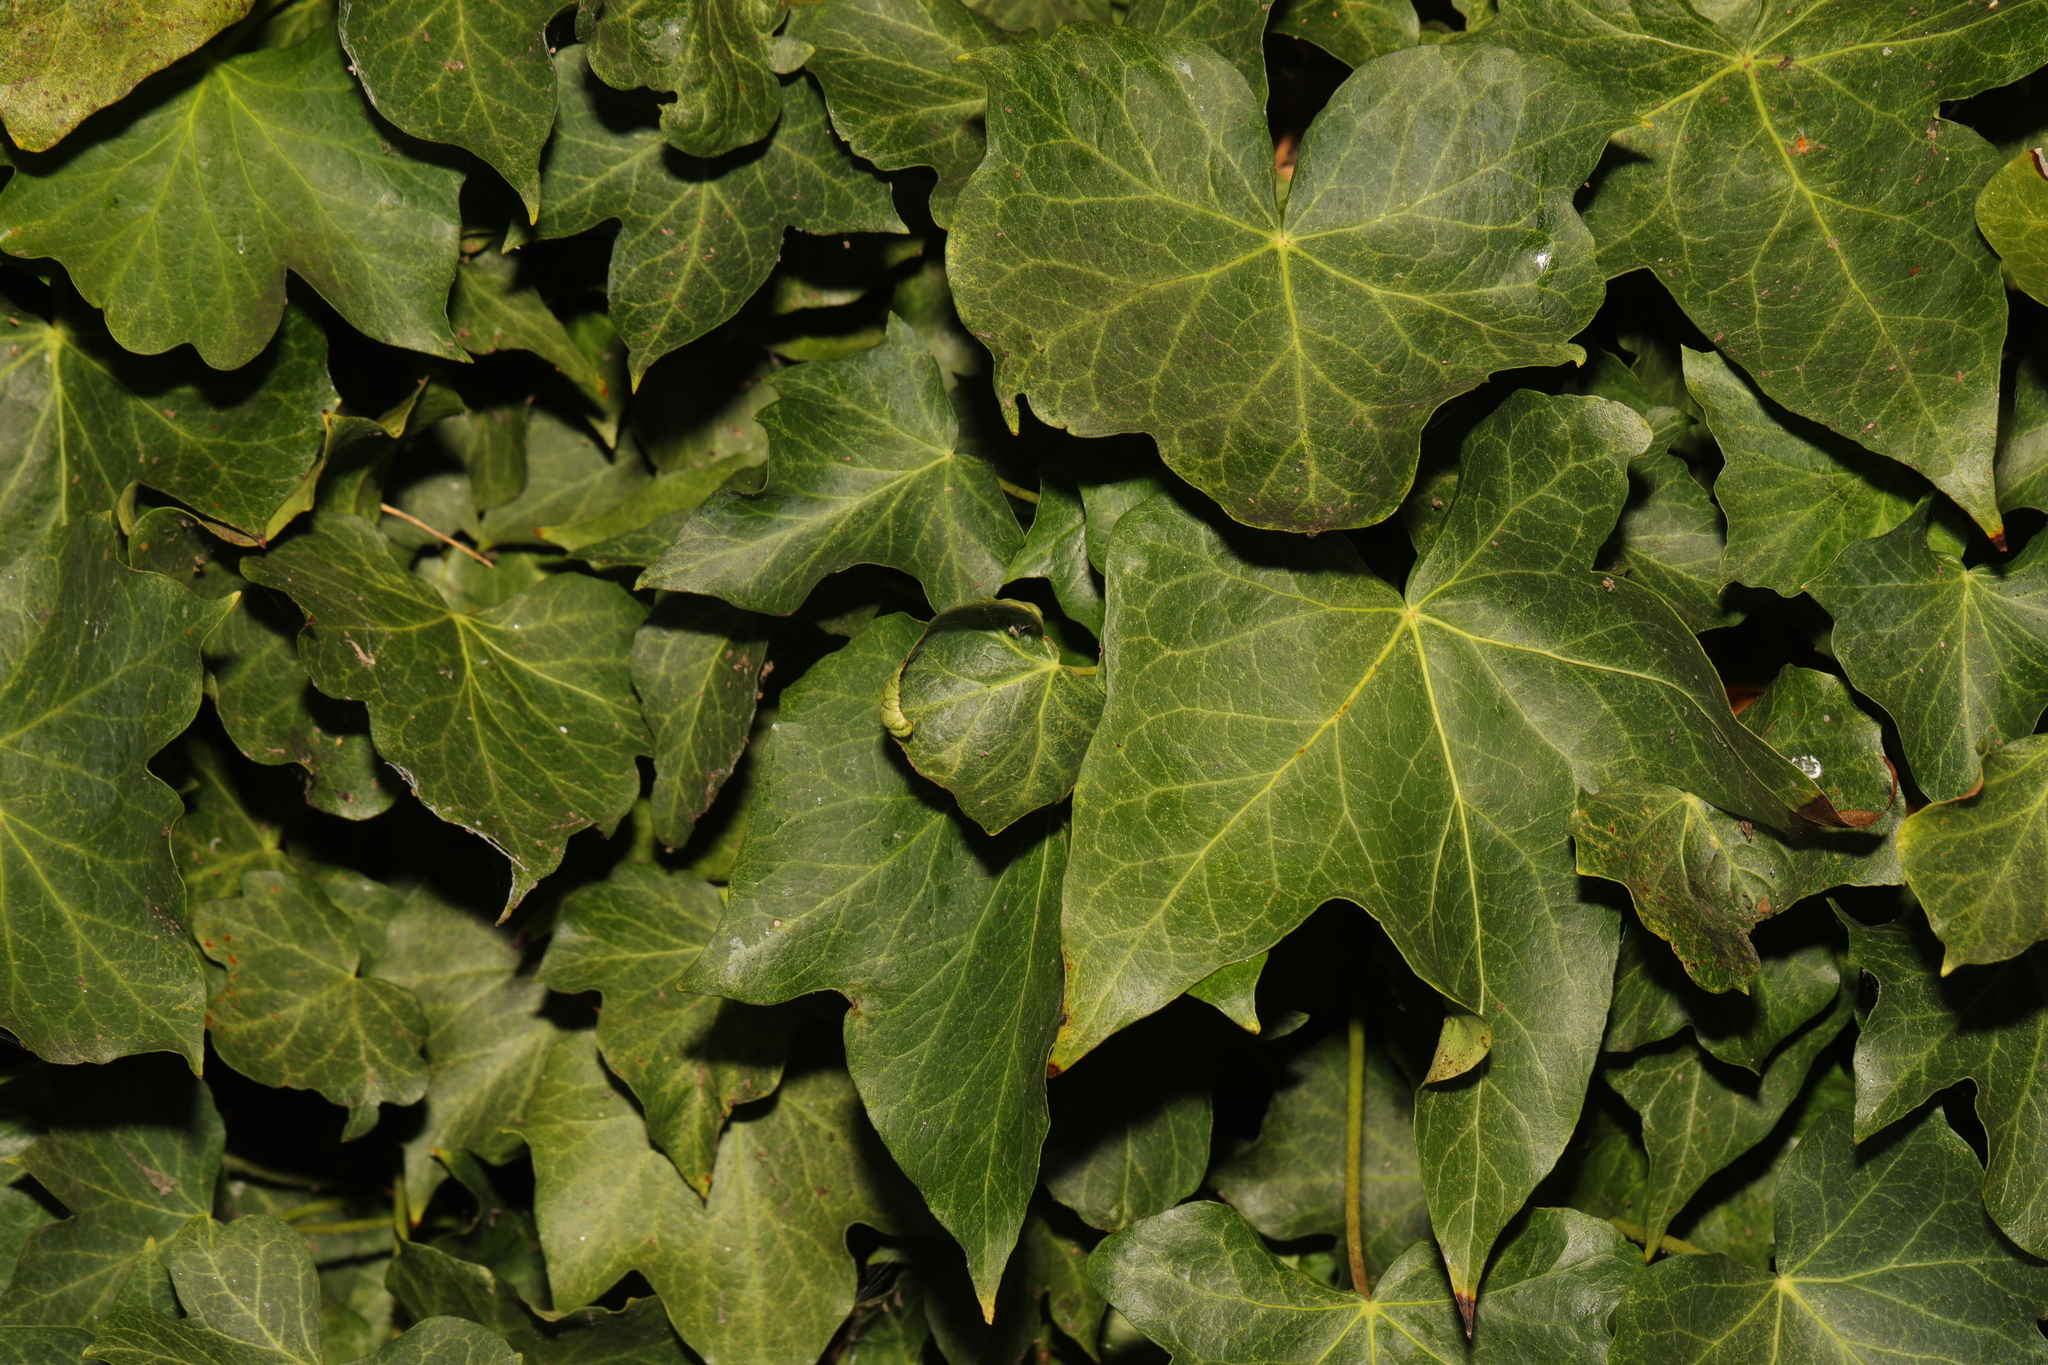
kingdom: Plantae
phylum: Tracheophyta
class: Magnoliopsida
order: Apiales
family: Araliaceae
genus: Hedera
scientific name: Hedera helix
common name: Ivy
